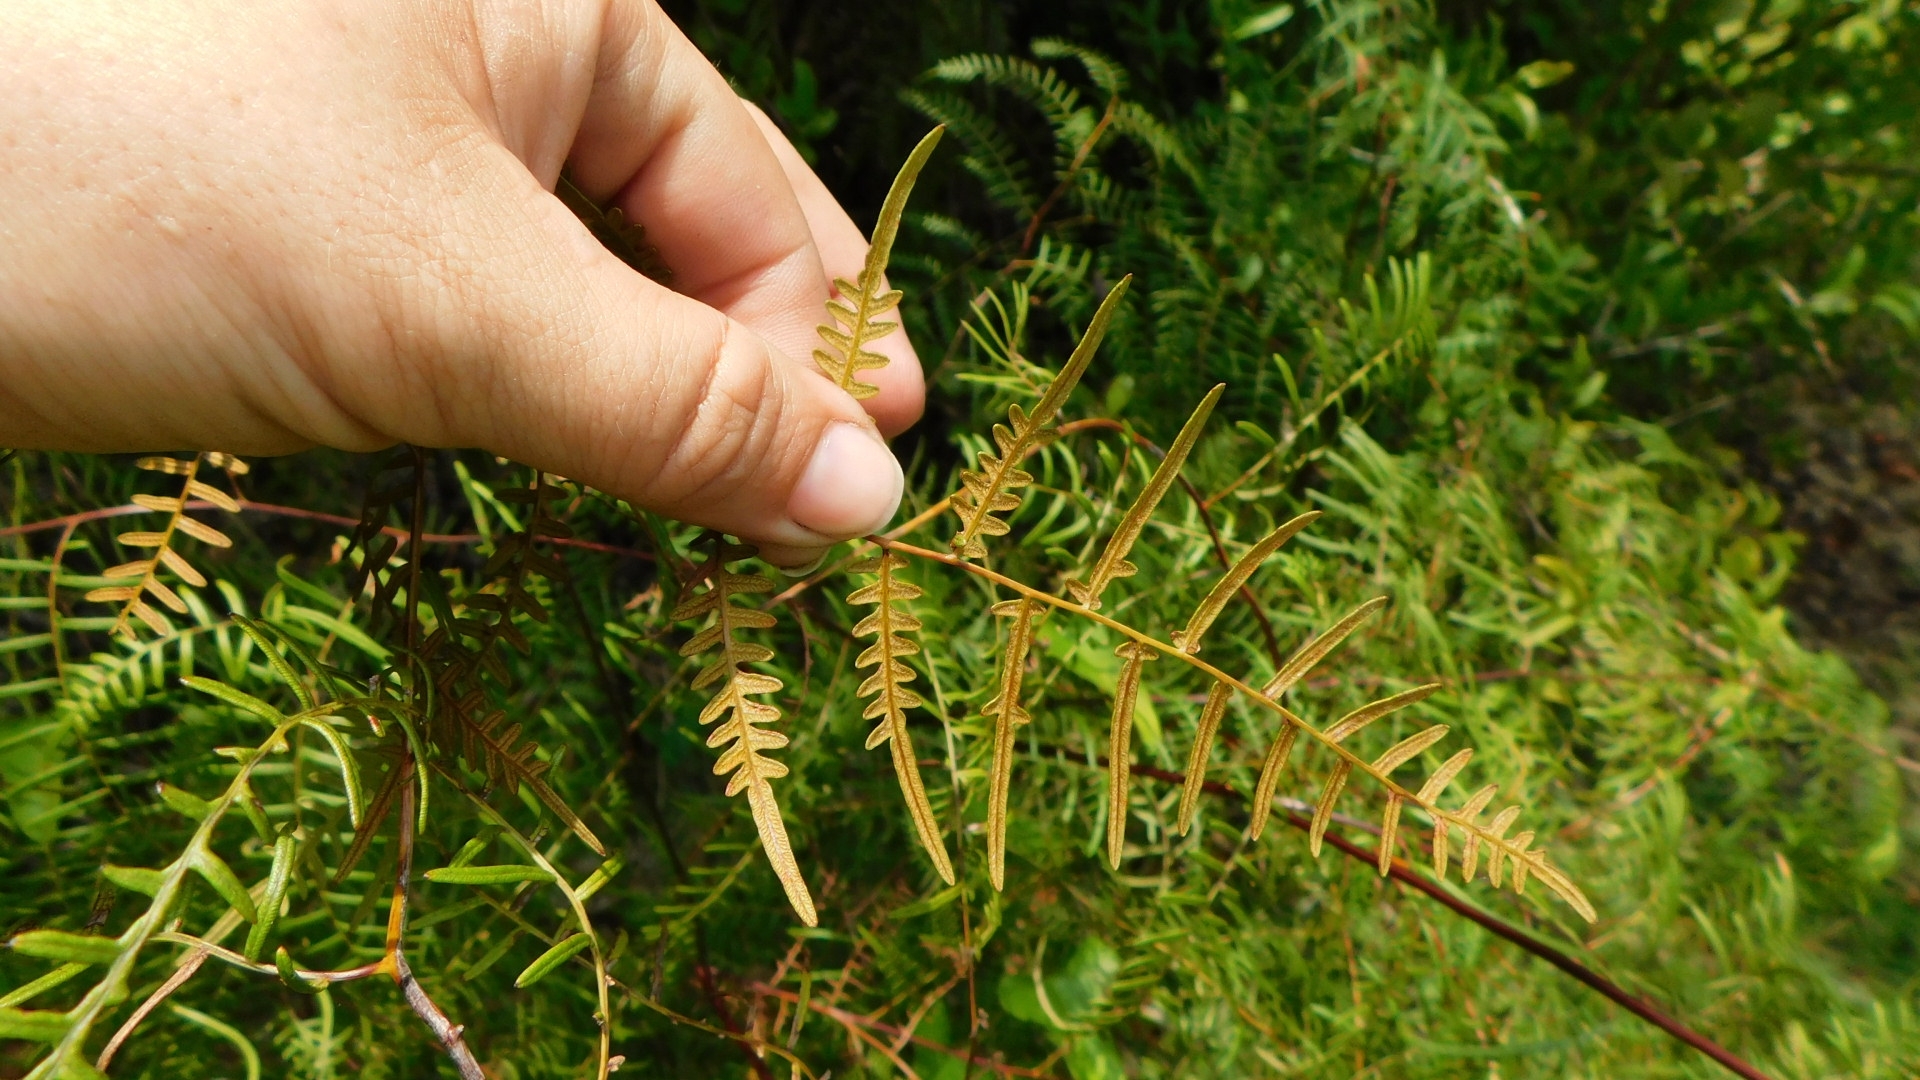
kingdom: Plantae
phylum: Tracheophyta
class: Polypodiopsida
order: Polypodiales
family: Dennstaedtiaceae
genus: Pteridium
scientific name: Pteridium caudatum
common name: Southern bracken fern
